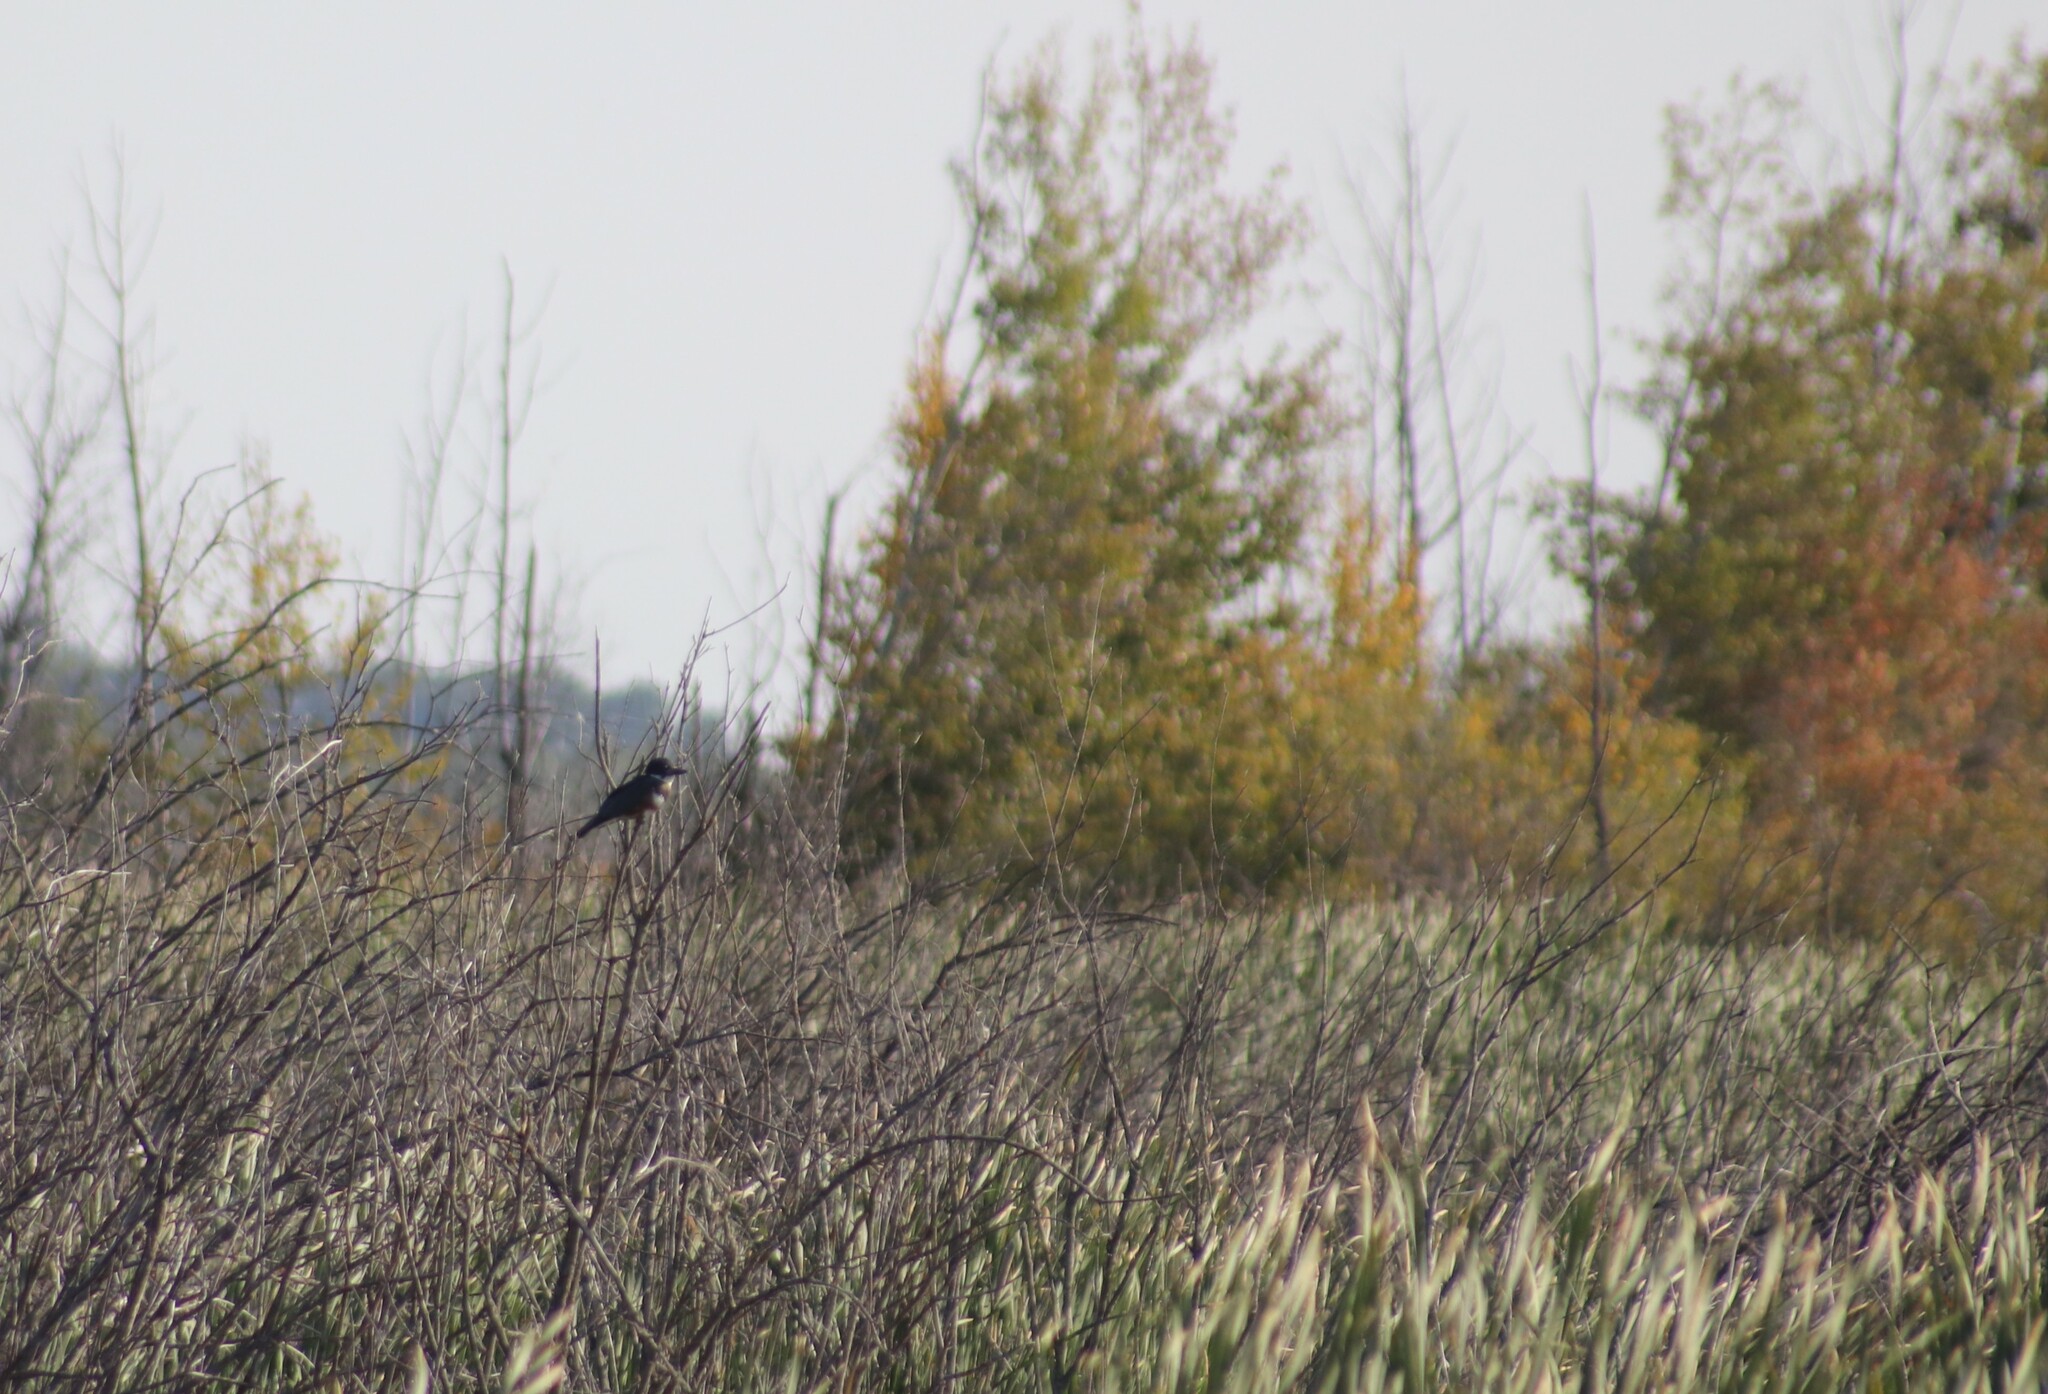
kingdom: Animalia
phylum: Chordata
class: Aves
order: Coraciiformes
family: Alcedinidae
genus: Megaceryle
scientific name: Megaceryle alcyon
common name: Belted kingfisher
